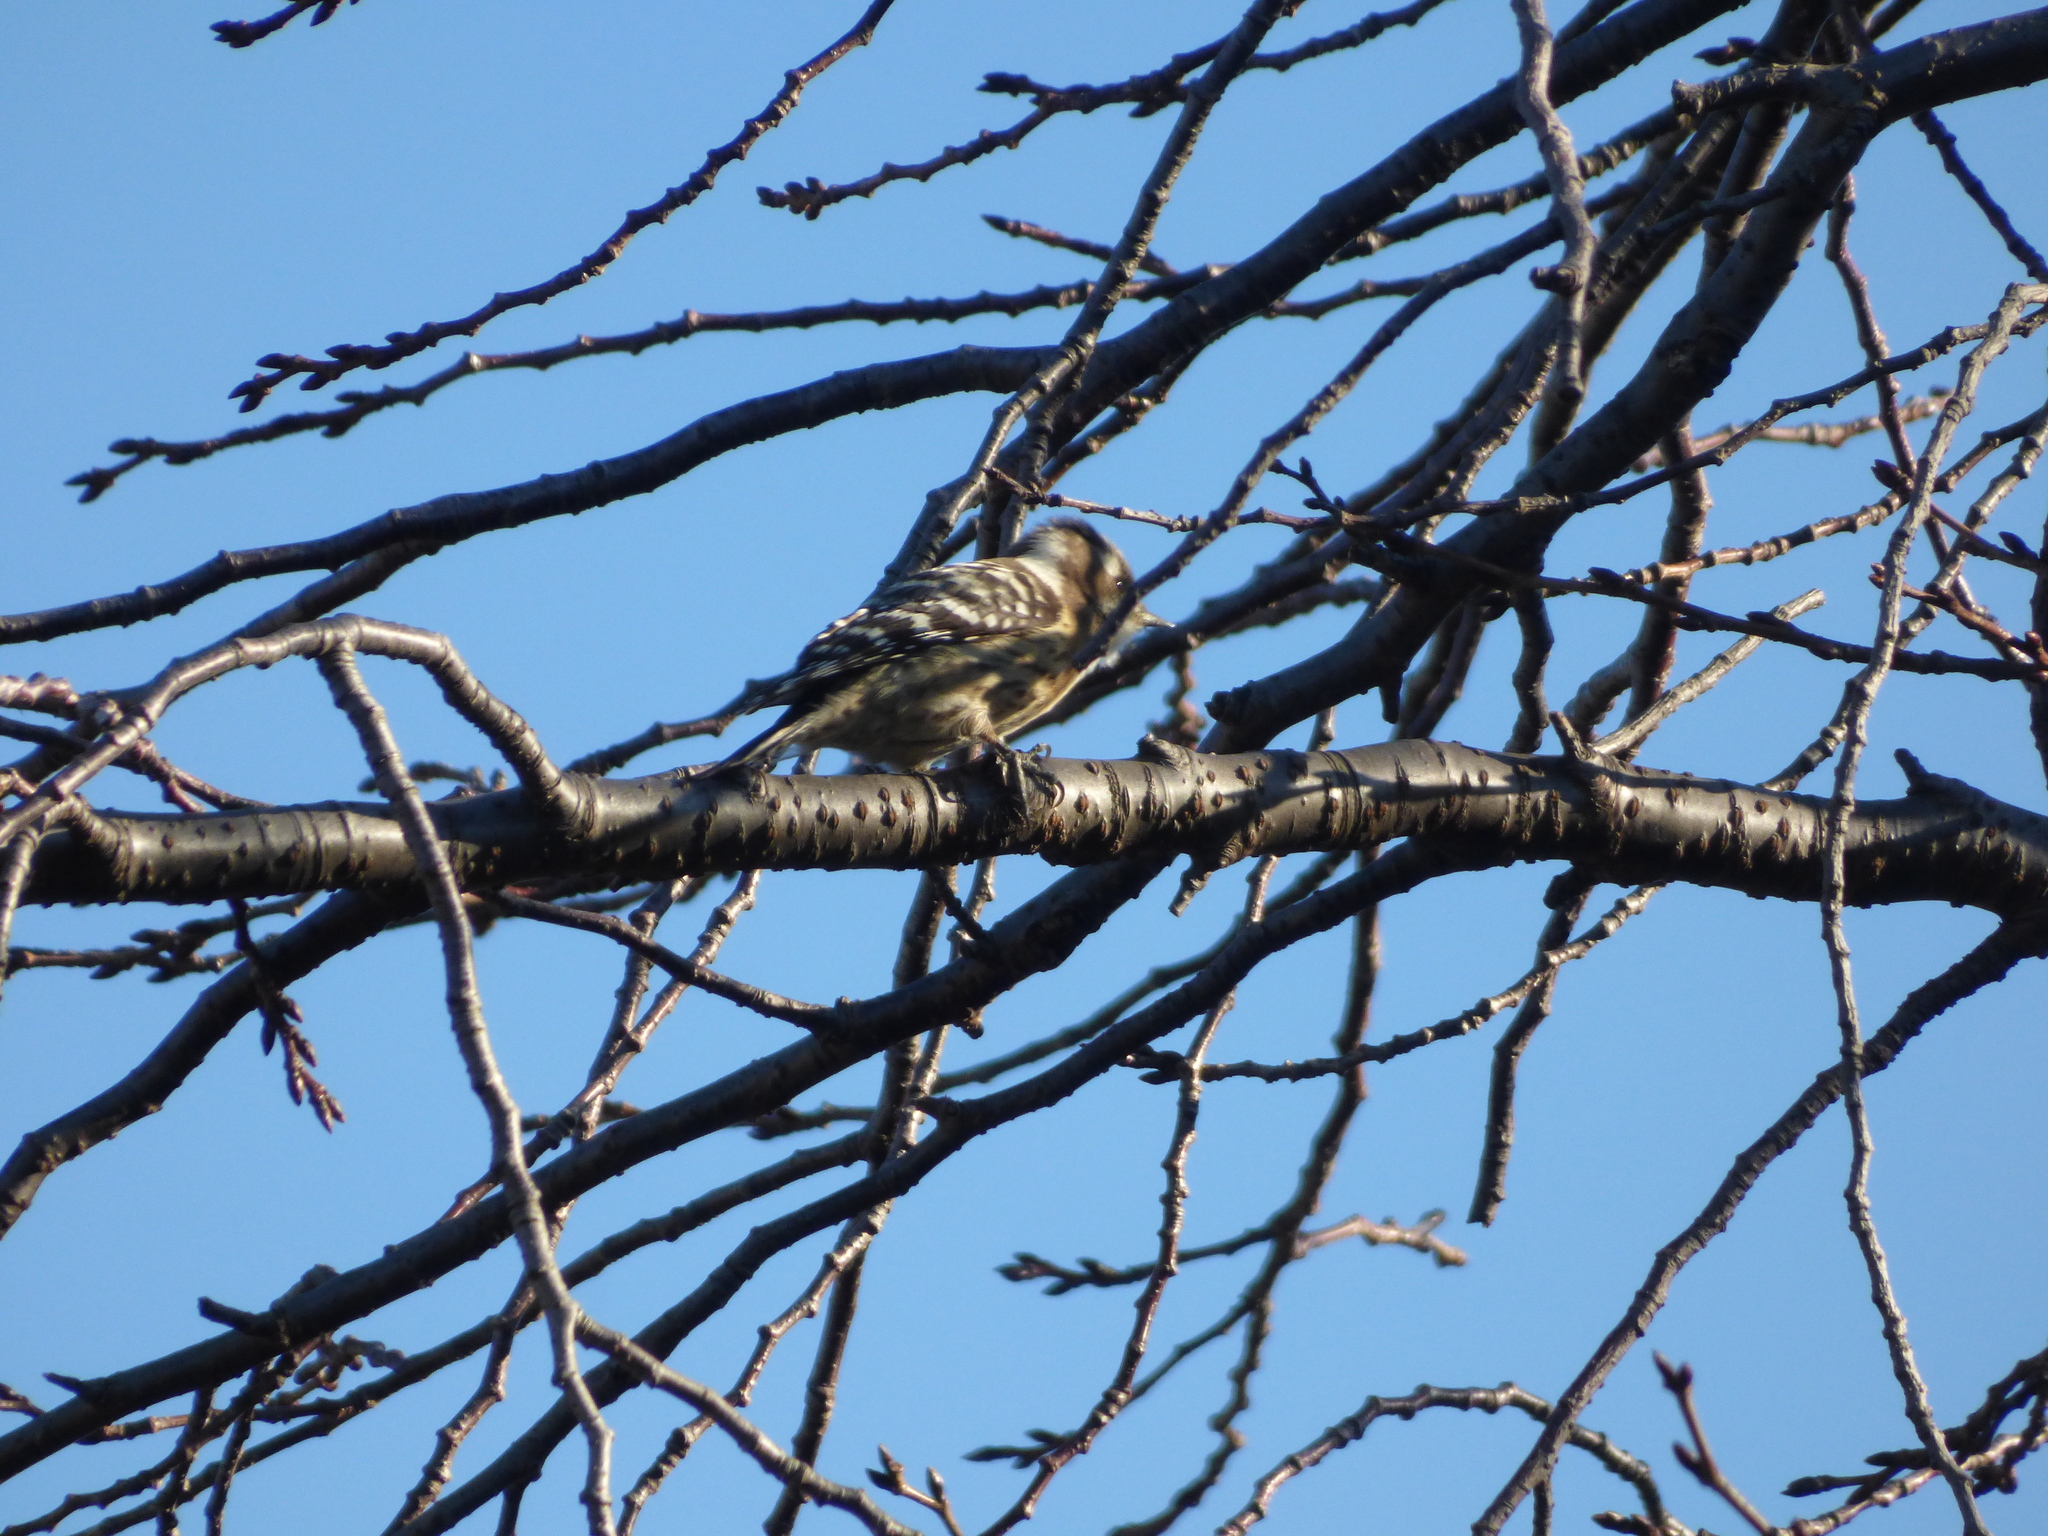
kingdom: Animalia
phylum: Chordata
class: Aves
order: Piciformes
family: Picidae
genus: Yungipicus
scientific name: Yungipicus kizuki
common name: Japanese pygmy woodpecker
